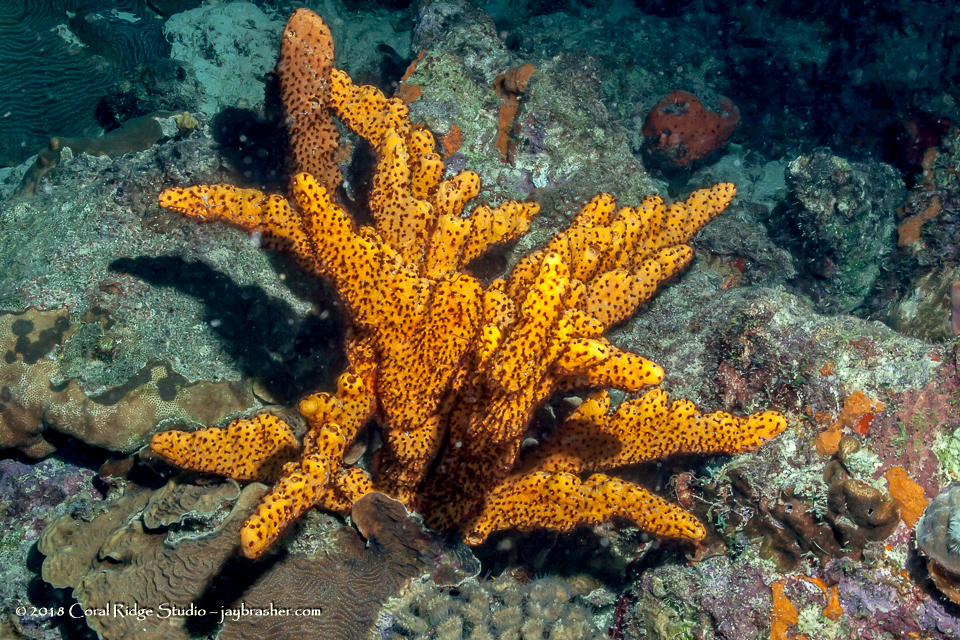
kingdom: Animalia
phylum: Cnidaria
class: Anthozoa
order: Zoantharia
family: Parazoanthidae
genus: Bergia
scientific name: Bergia puertoricense
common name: Maroon sponge zoanthid
